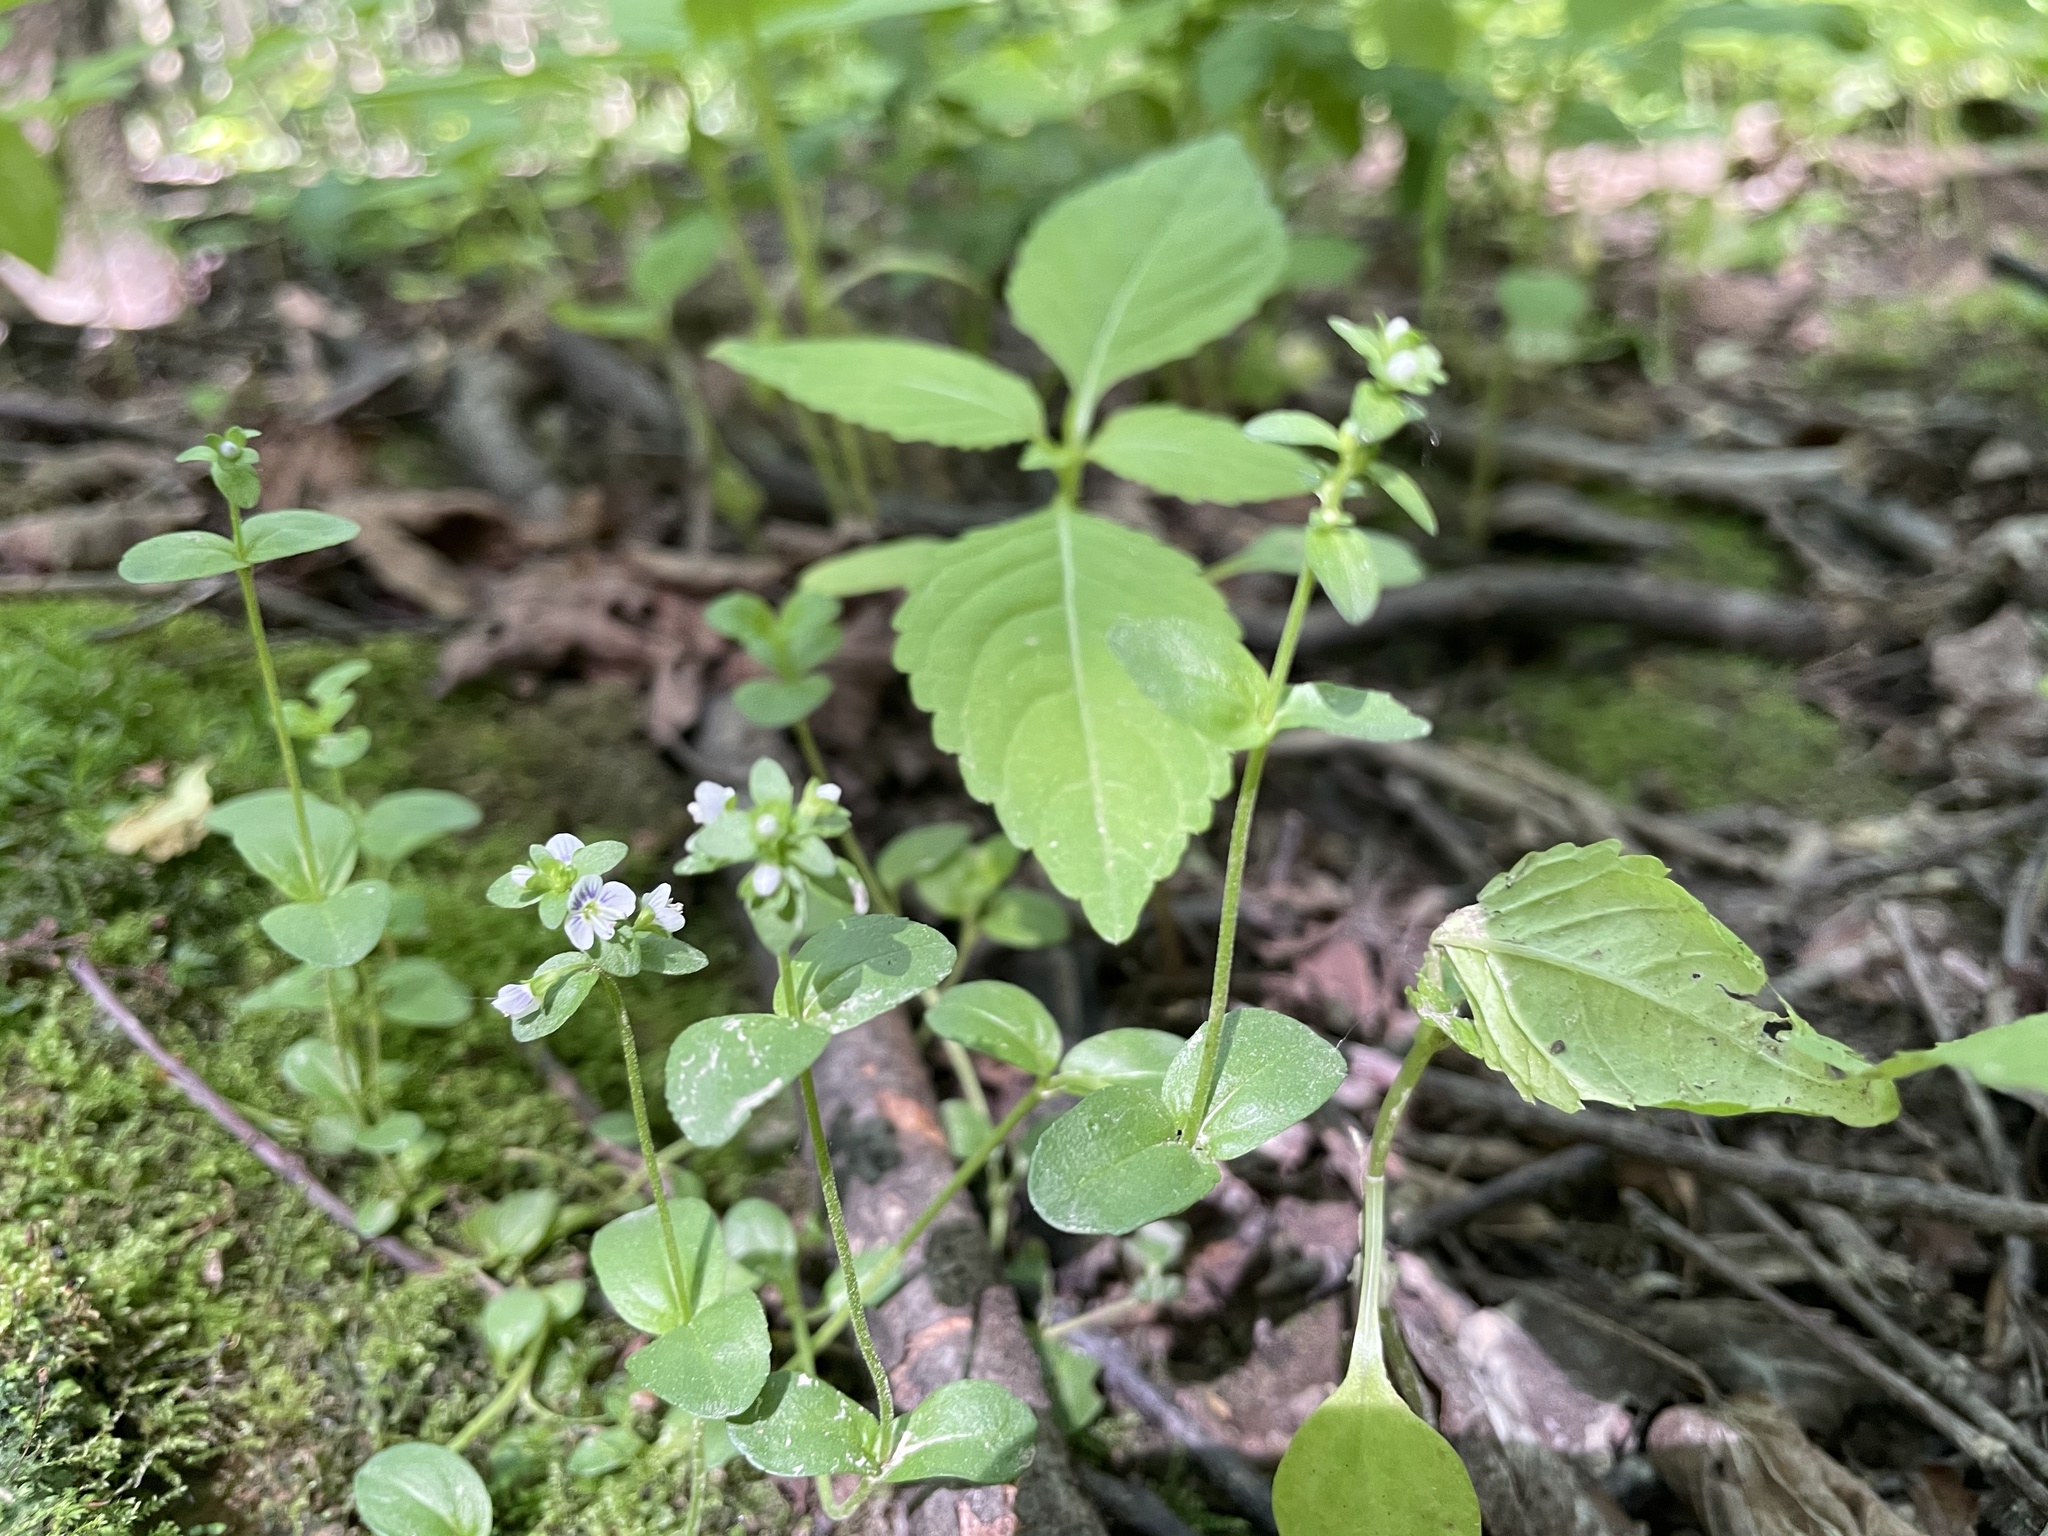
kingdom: Plantae
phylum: Tracheophyta
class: Magnoliopsida
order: Lamiales
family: Plantaginaceae
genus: Veronica
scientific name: Veronica serpyllifolia
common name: Thyme-leaved speedwell
